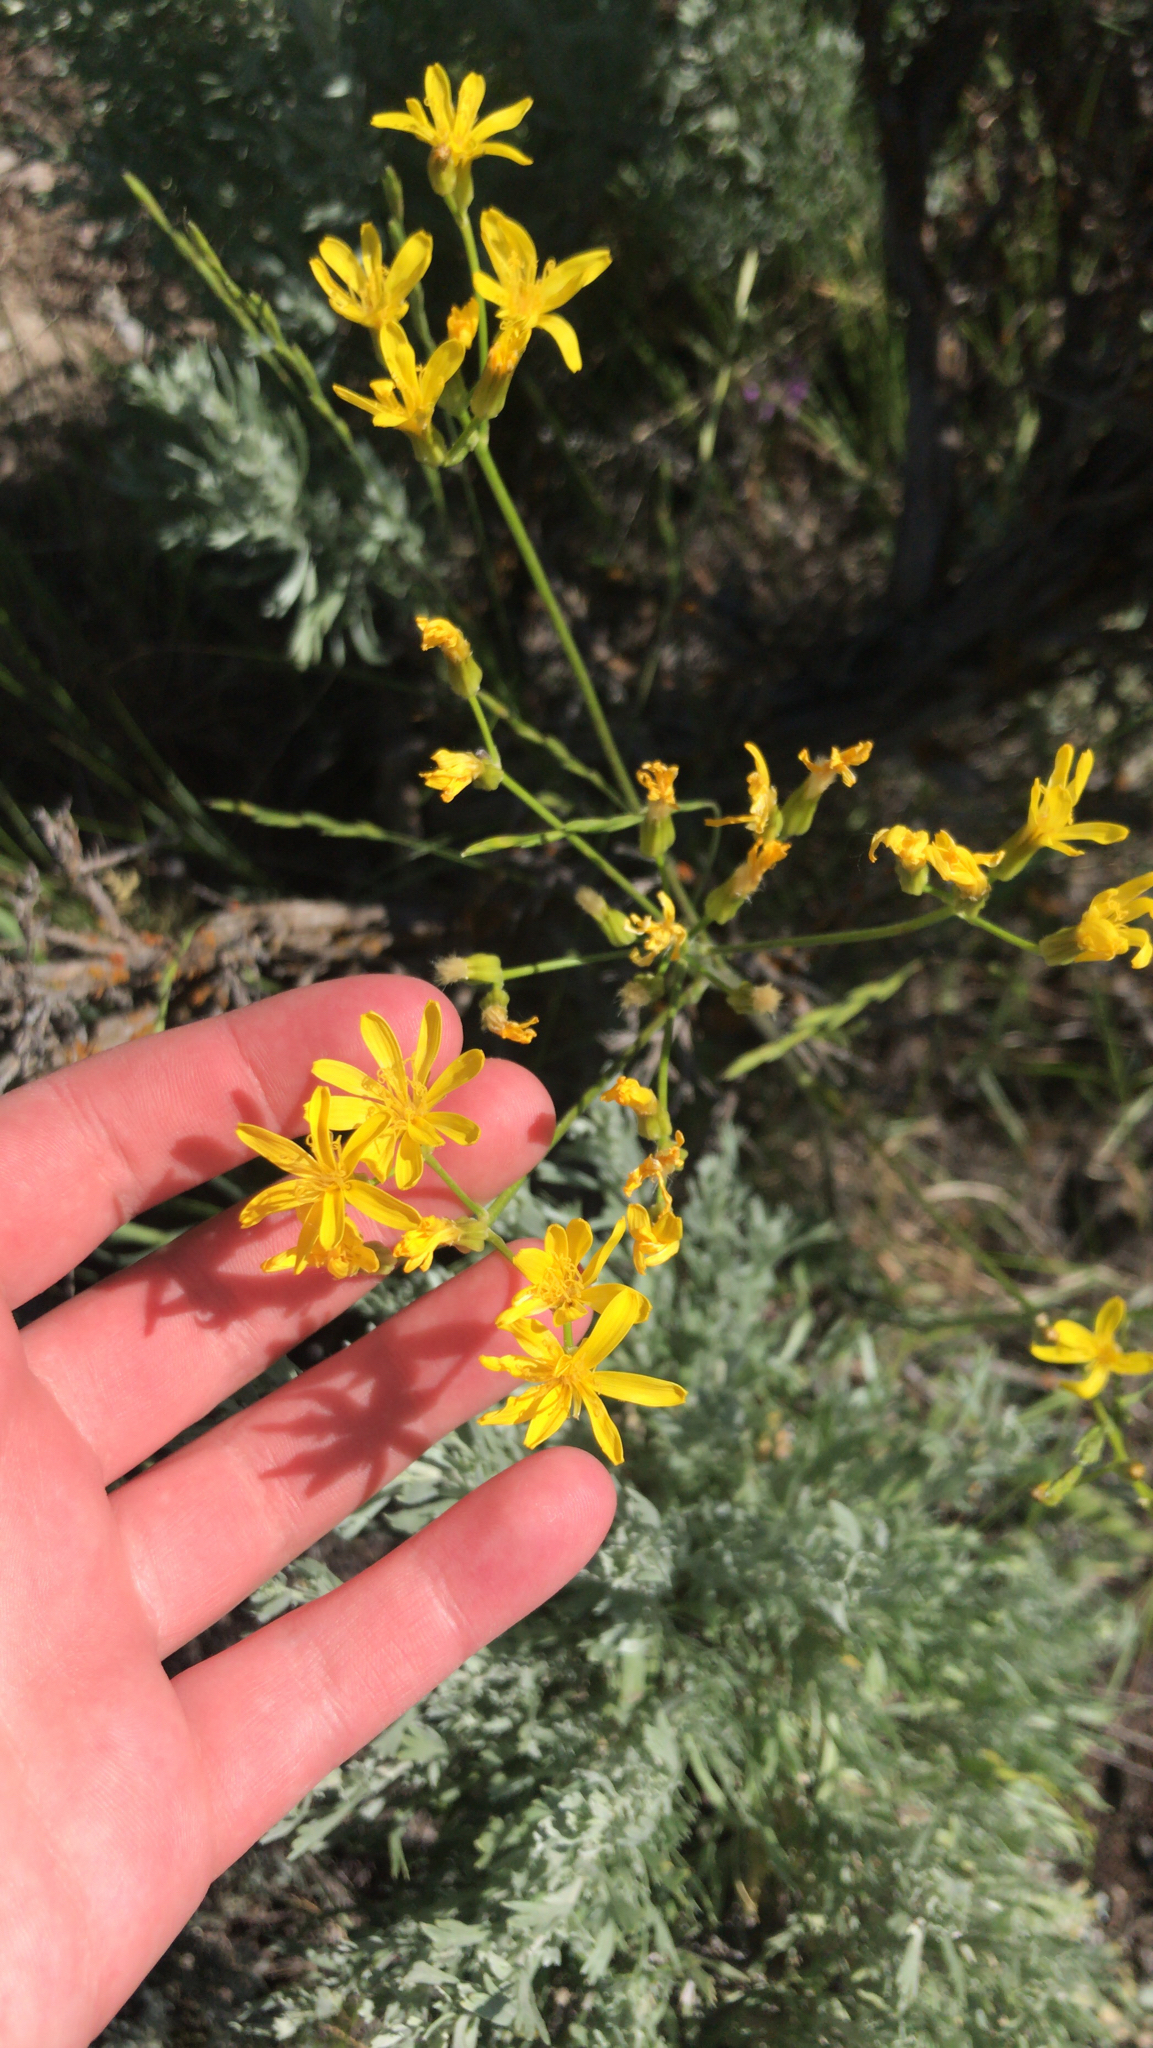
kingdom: Plantae
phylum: Tracheophyta
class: Magnoliopsida
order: Asterales
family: Asteraceae
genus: Crepis
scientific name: Crepis acuminata
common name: Longleaf hawk's-beard
